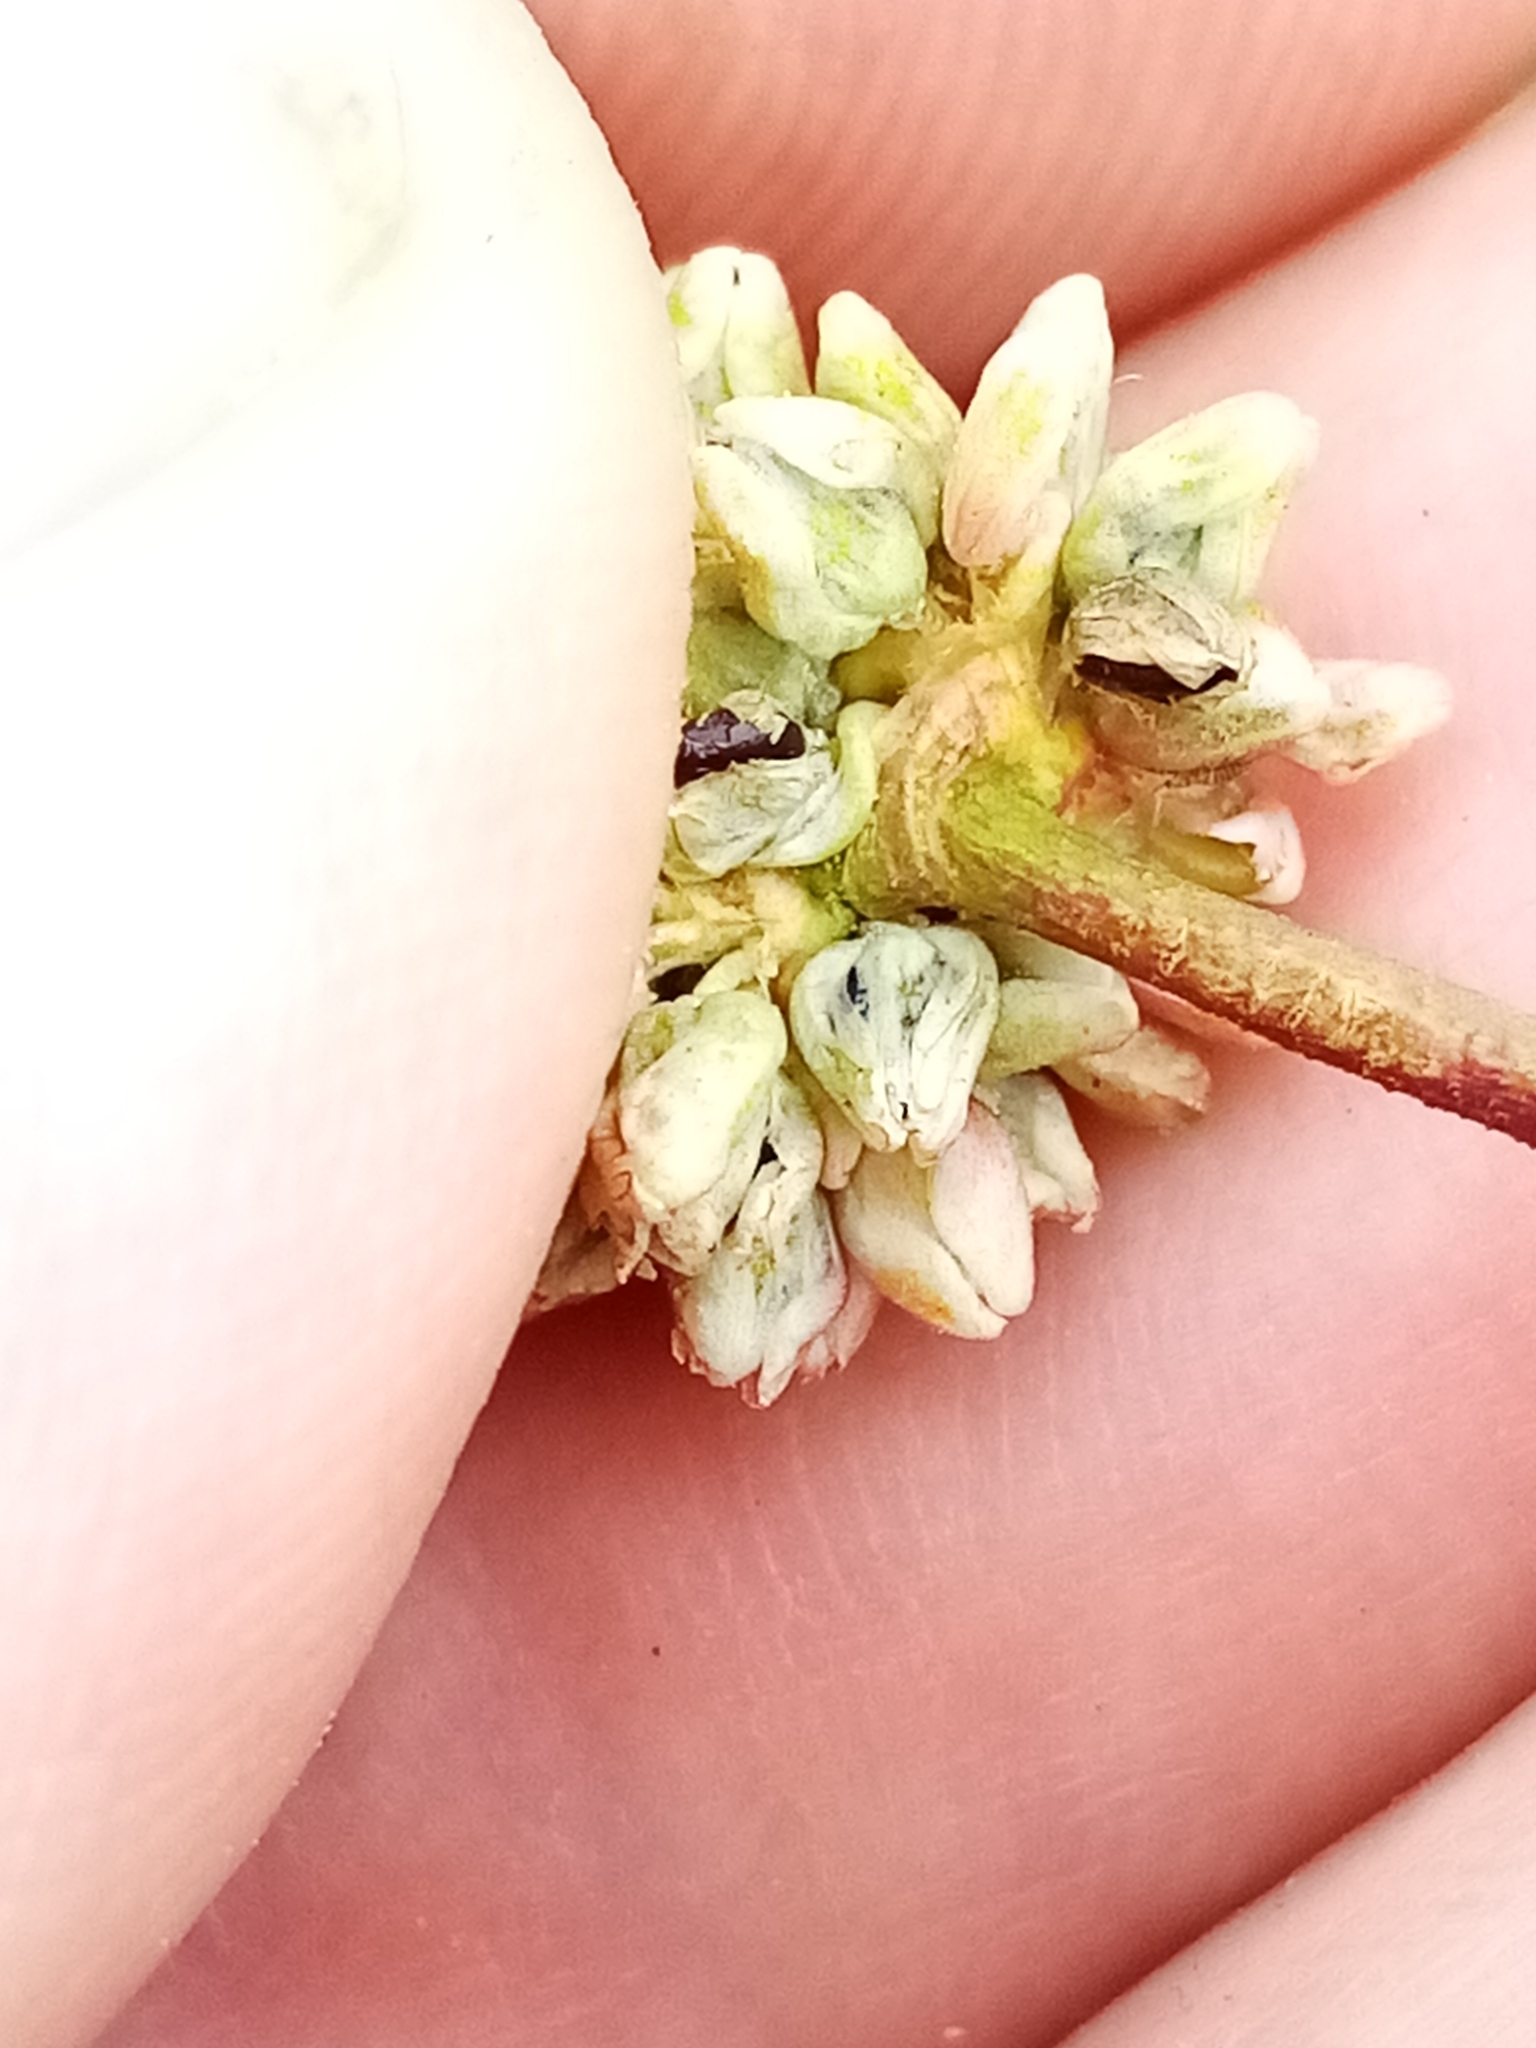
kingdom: Plantae
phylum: Tracheophyta
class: Magnoliopsida
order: Caryophyllales
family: Polygonaceae
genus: Persicaria
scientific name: Persicaria maculosa
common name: Redshank
